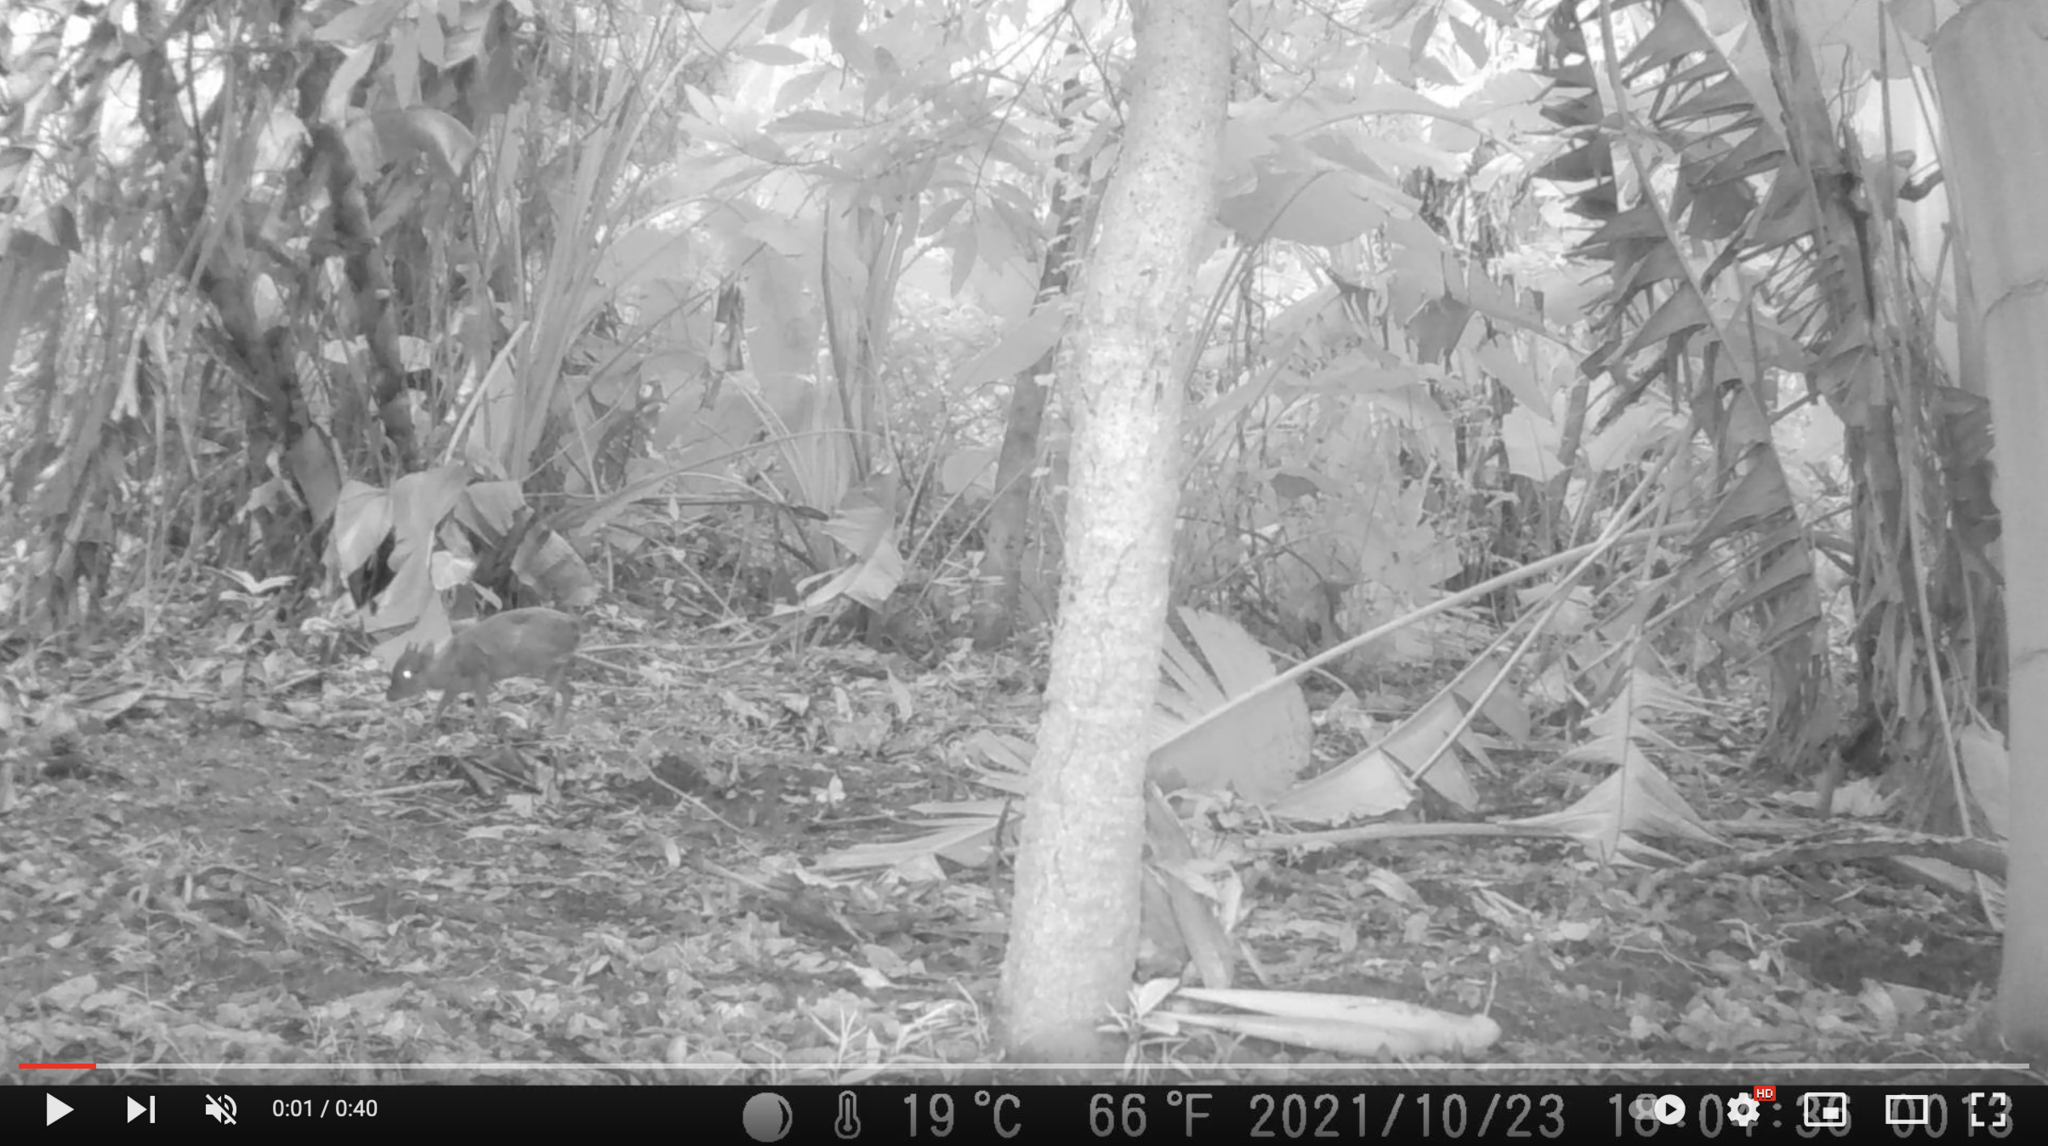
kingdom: Animalia
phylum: Chordata
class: Mammalia
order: Artiodactyla
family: Bovidae
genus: Philantomba
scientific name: Philantomba monticola
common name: Blue duiker
